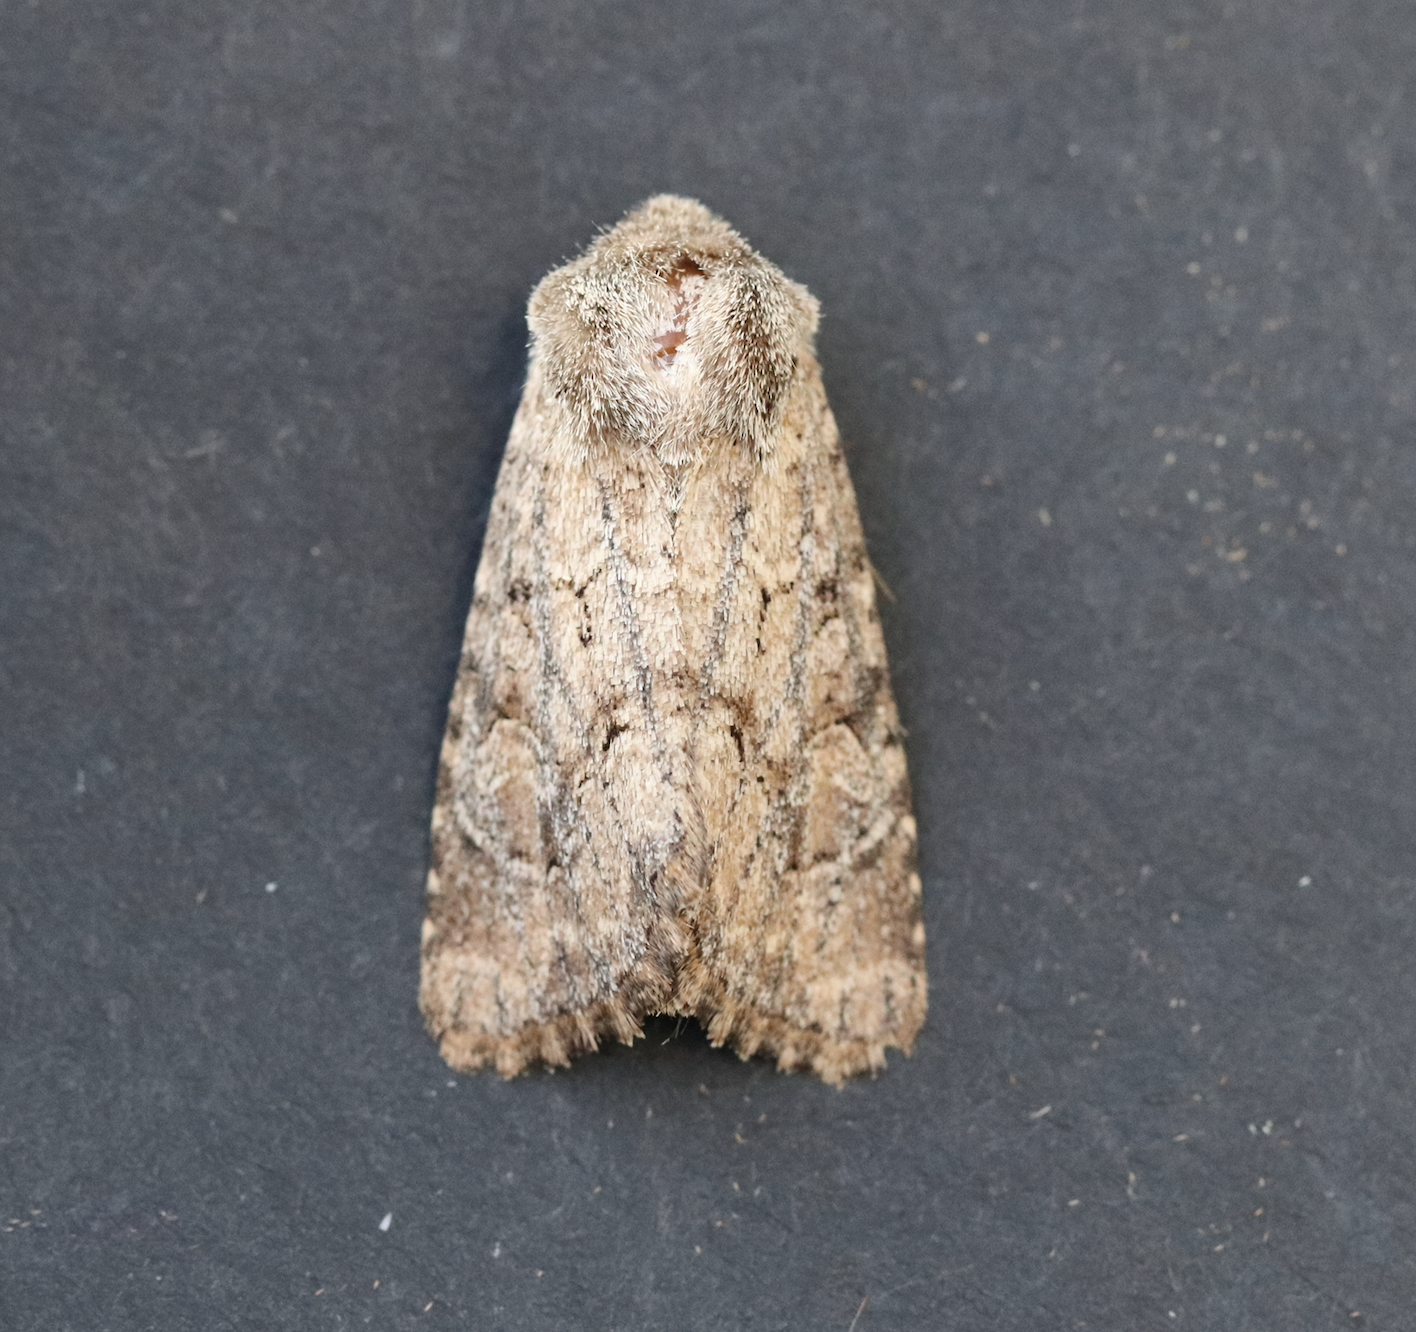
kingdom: Animalia
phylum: Arthropoda
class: Insecta
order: Lepidoptera
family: Noctuidae
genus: Luperina
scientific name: Luperina testacea
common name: Flounced rustic
